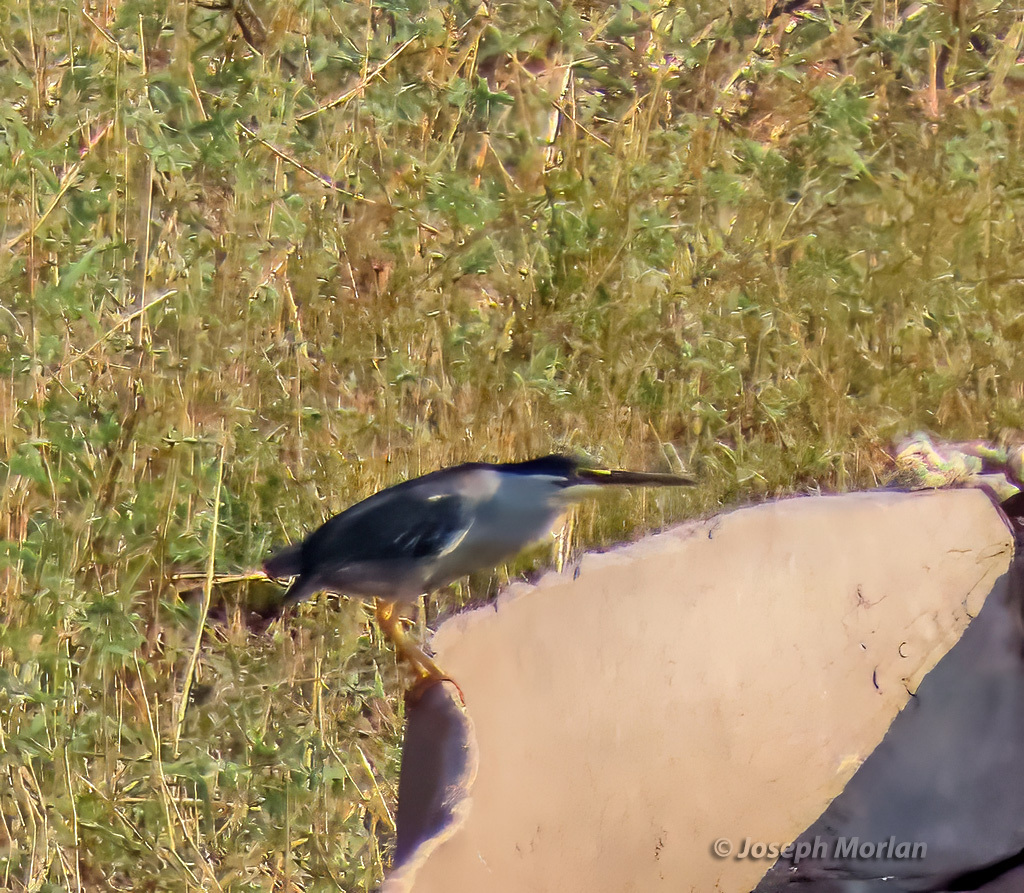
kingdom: Animalia
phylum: Chordata
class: Aves
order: Pelecaniformes
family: Ardeidae
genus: Butorides
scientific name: Butorides striata
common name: Striated heron
